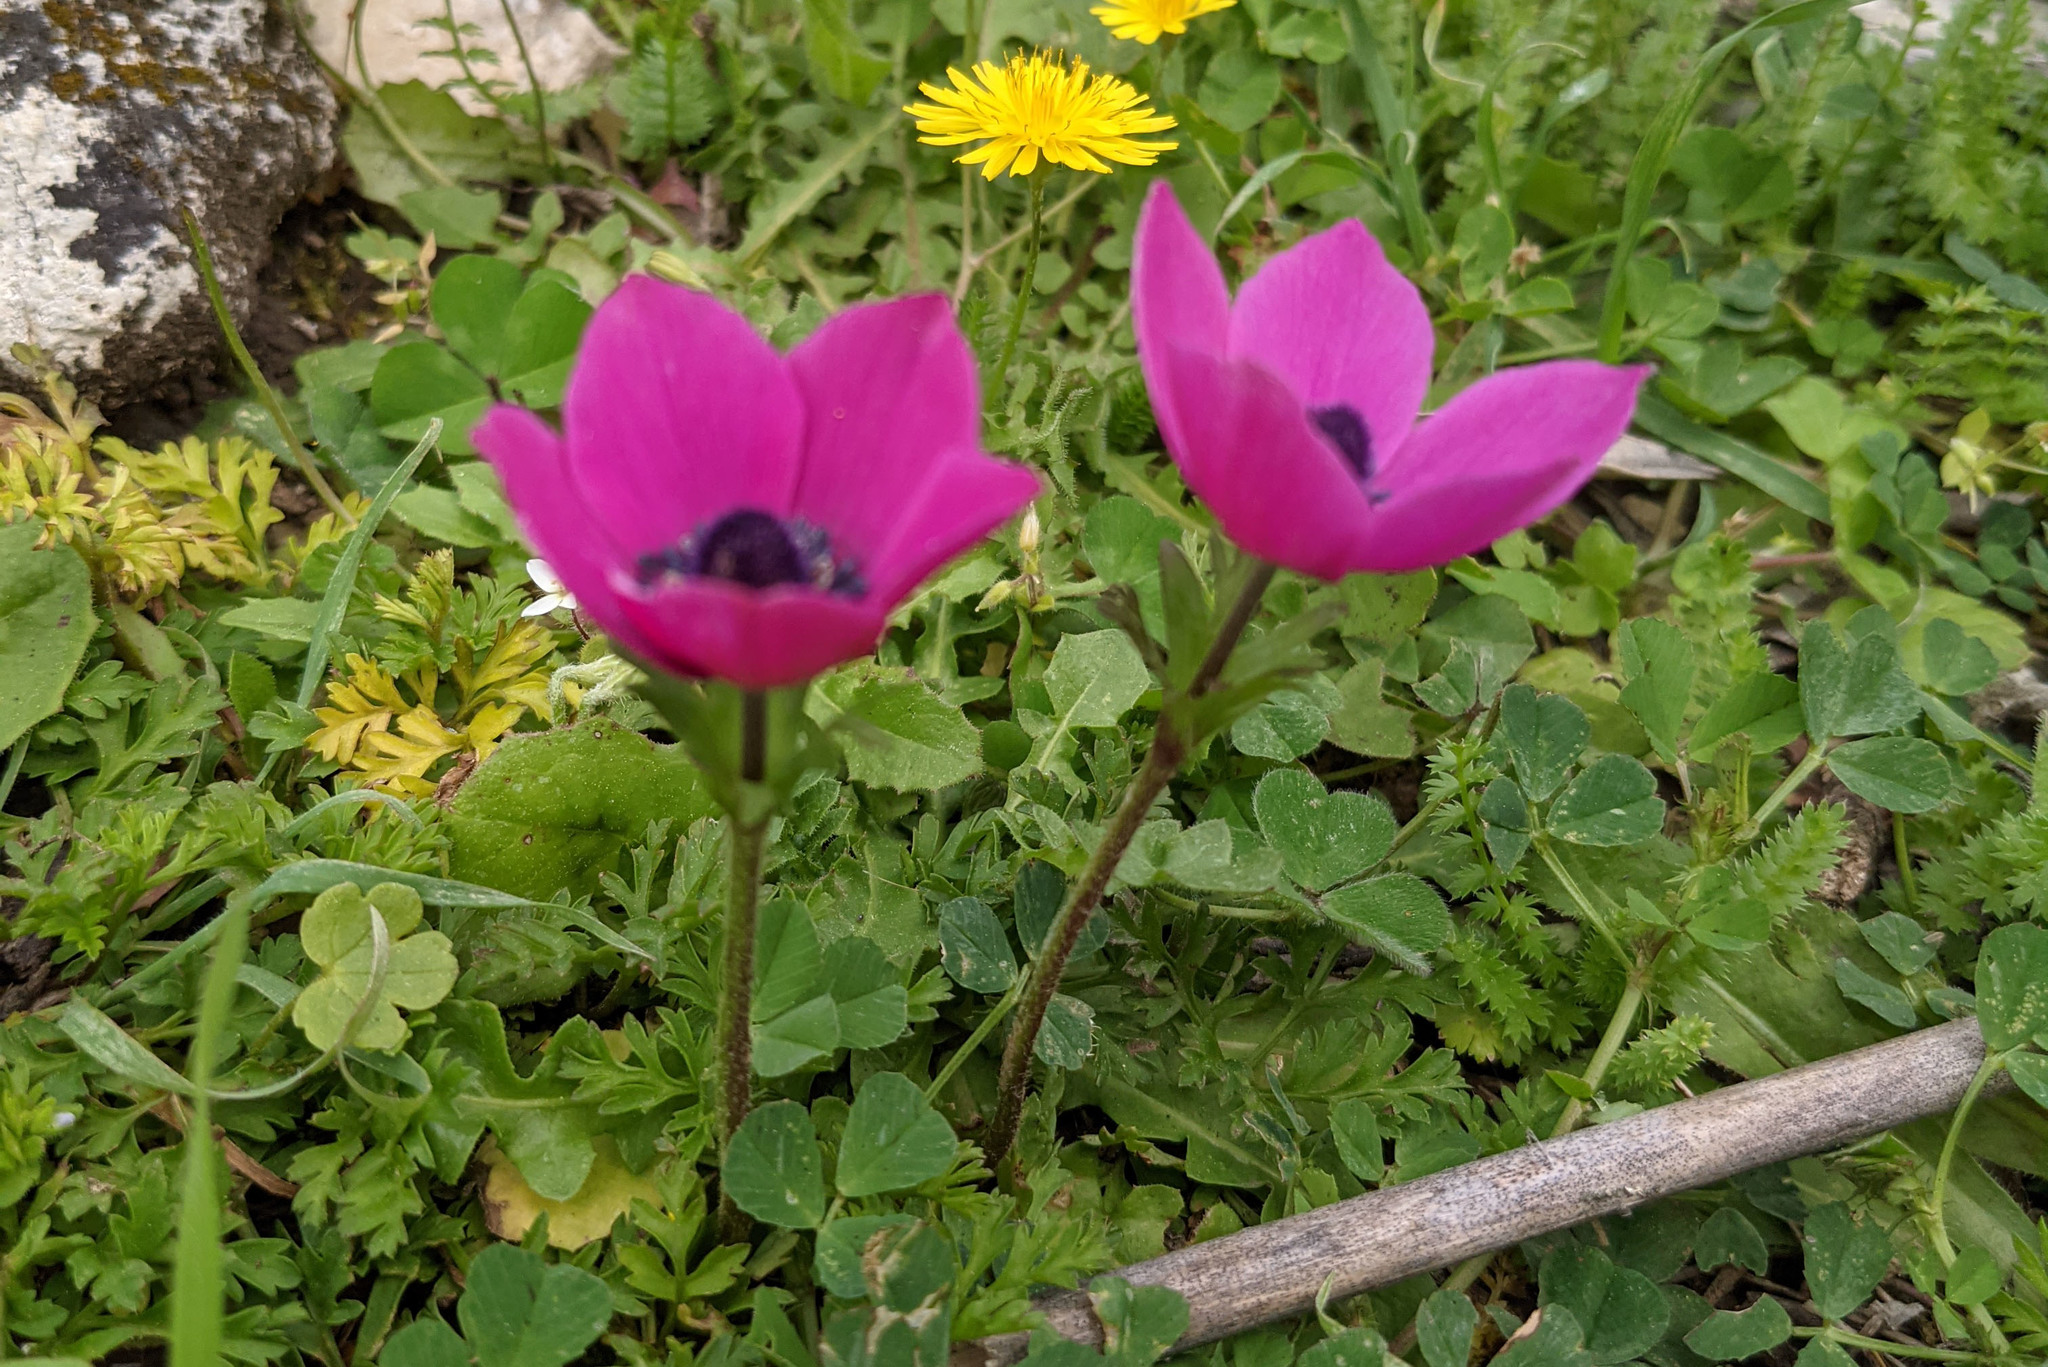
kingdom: Plantae
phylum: Tracheophyta
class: Magnoliopsida
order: Ranunculales
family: Ranunculaceae
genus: Anemone
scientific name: Anemone coronaria
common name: Poppy anemone
